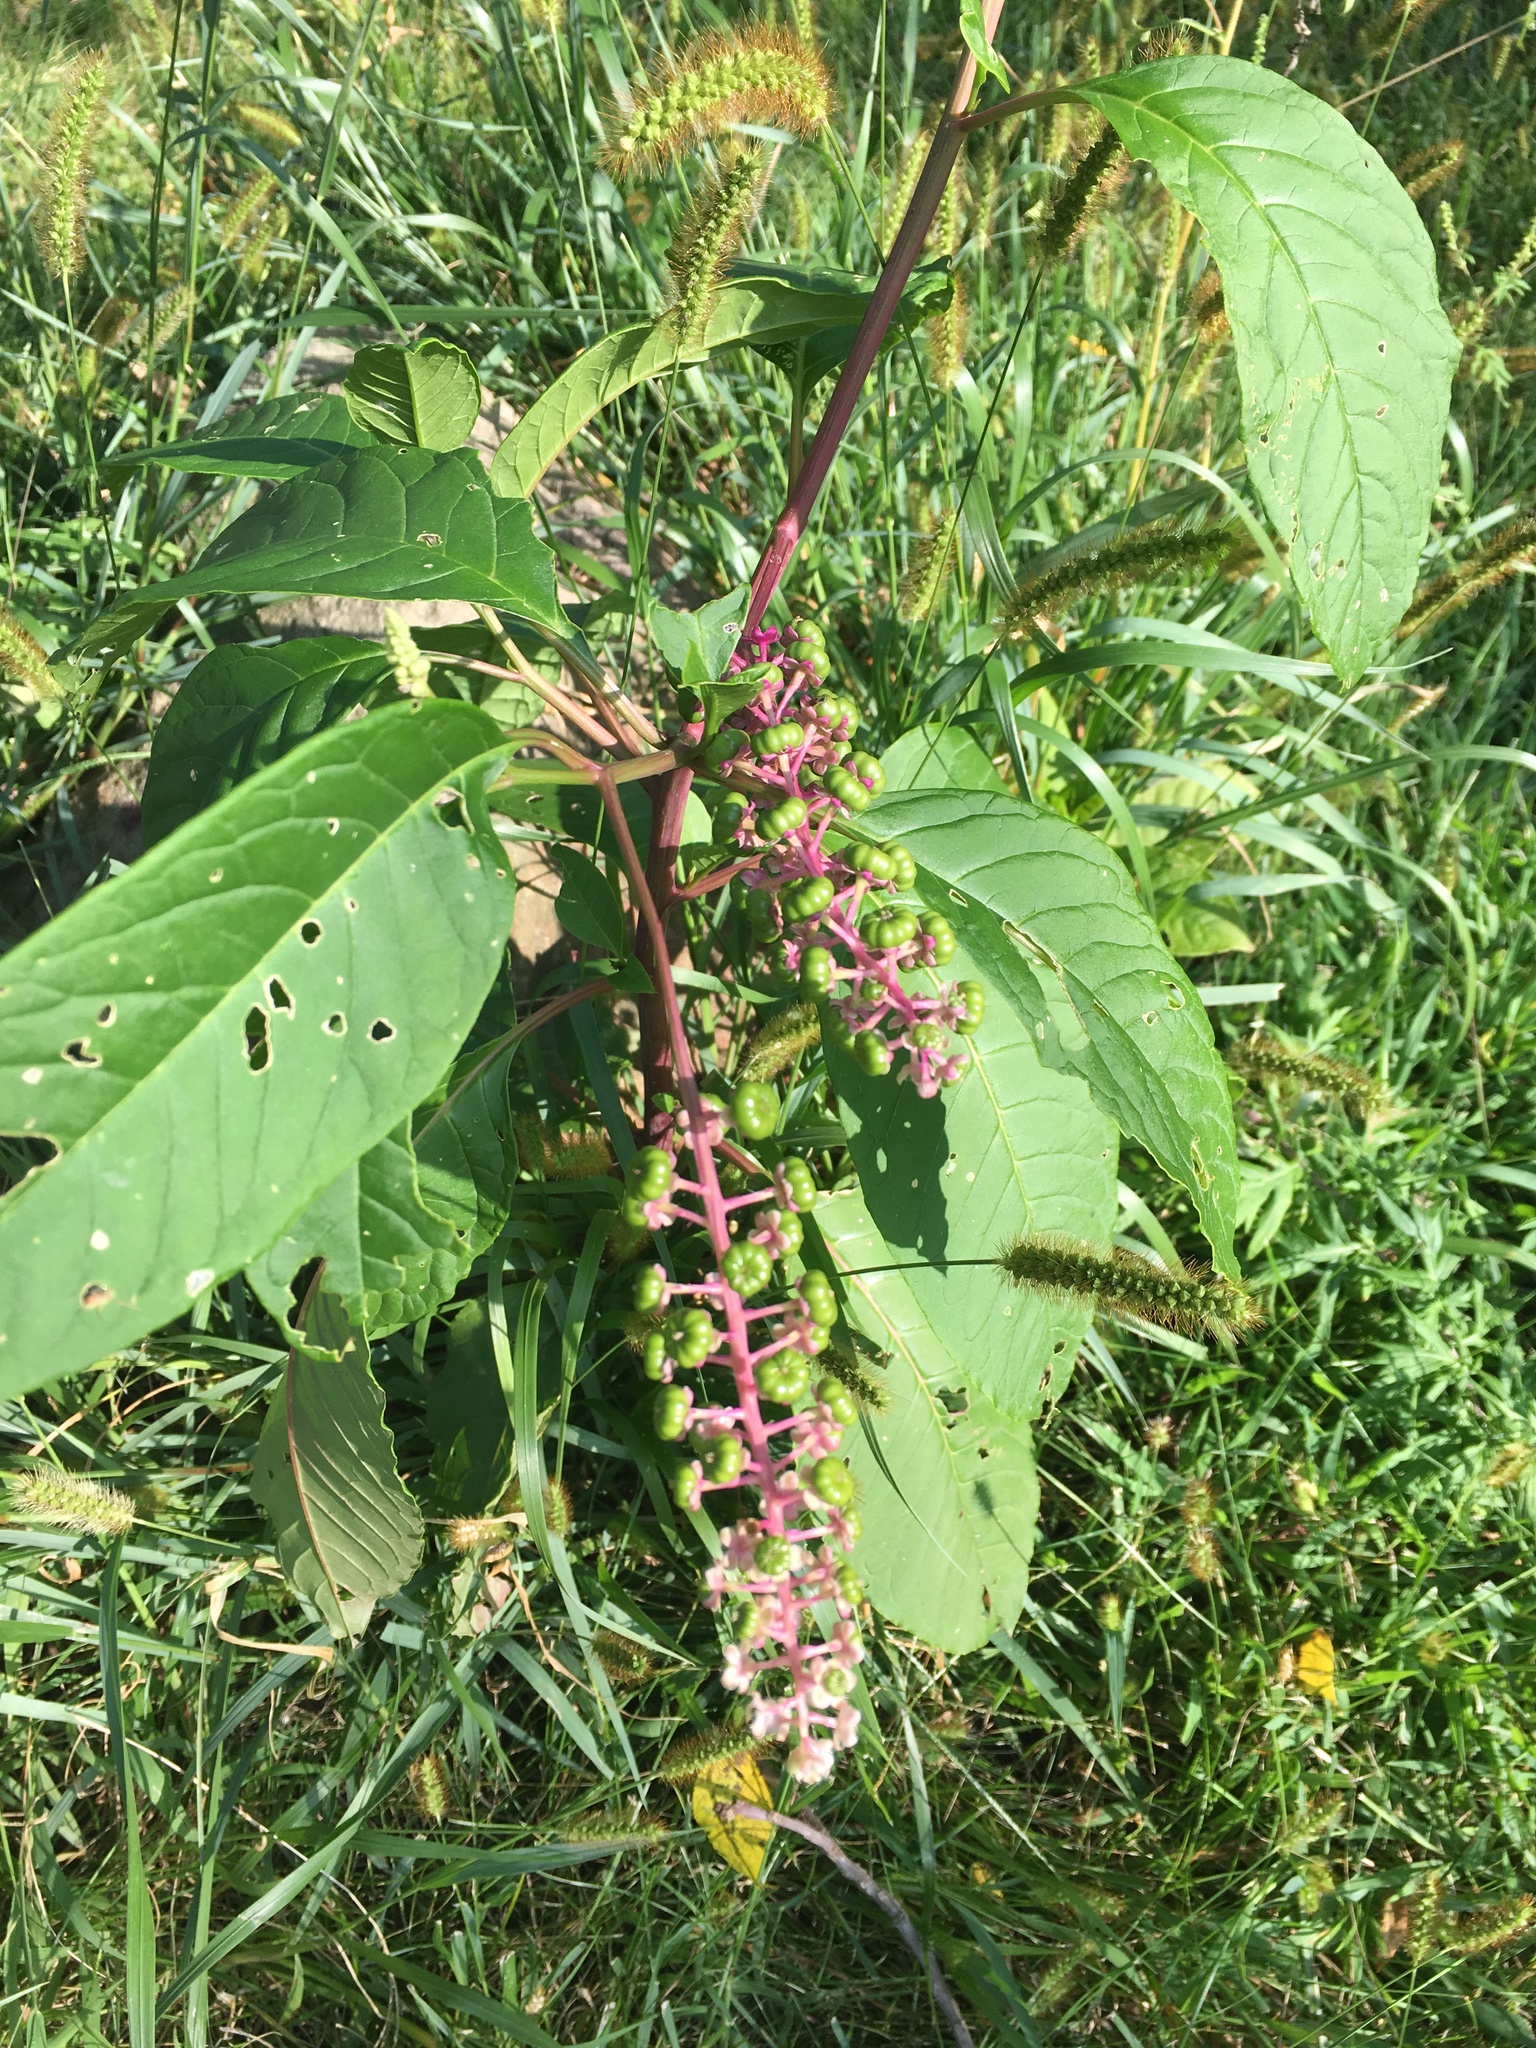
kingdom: Plantae
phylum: Tracheophyta
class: Magnoliopsida
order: Caryophyllales
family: Phytolaccaceae
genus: Phytolacca
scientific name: Phytolacca americana
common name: American pokeweed
